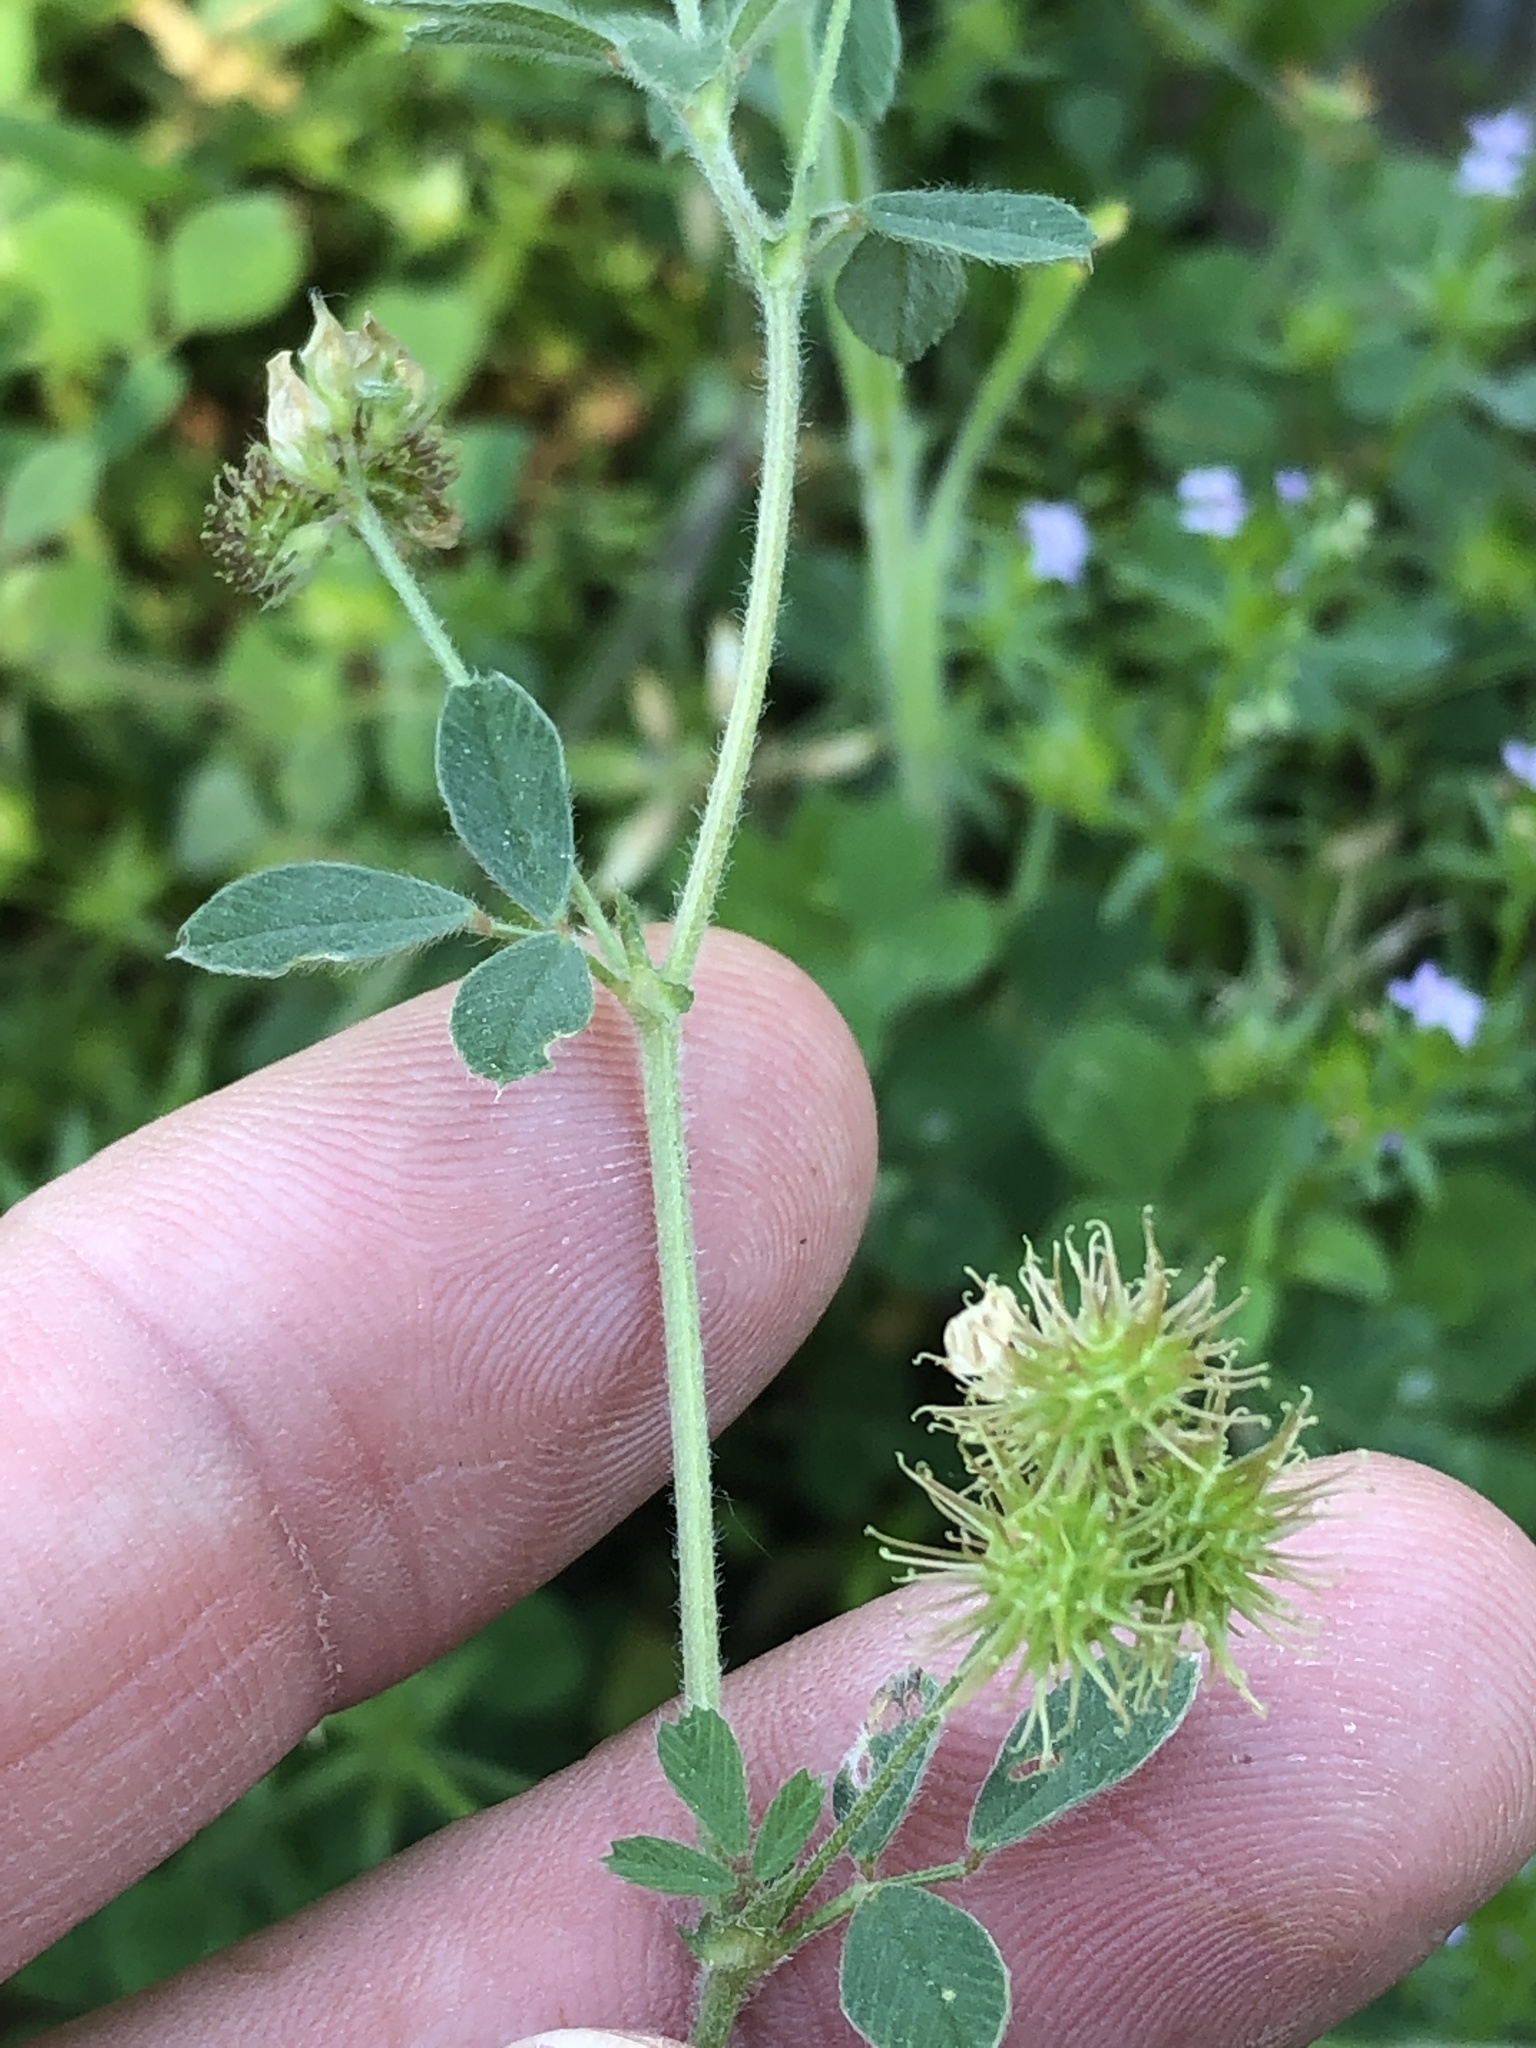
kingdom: Plantae
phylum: Tracheophyta
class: Magnoliopsida
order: Fabales
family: Fabaceae
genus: Medicago
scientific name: Medicago minima
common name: Little bur-clover
